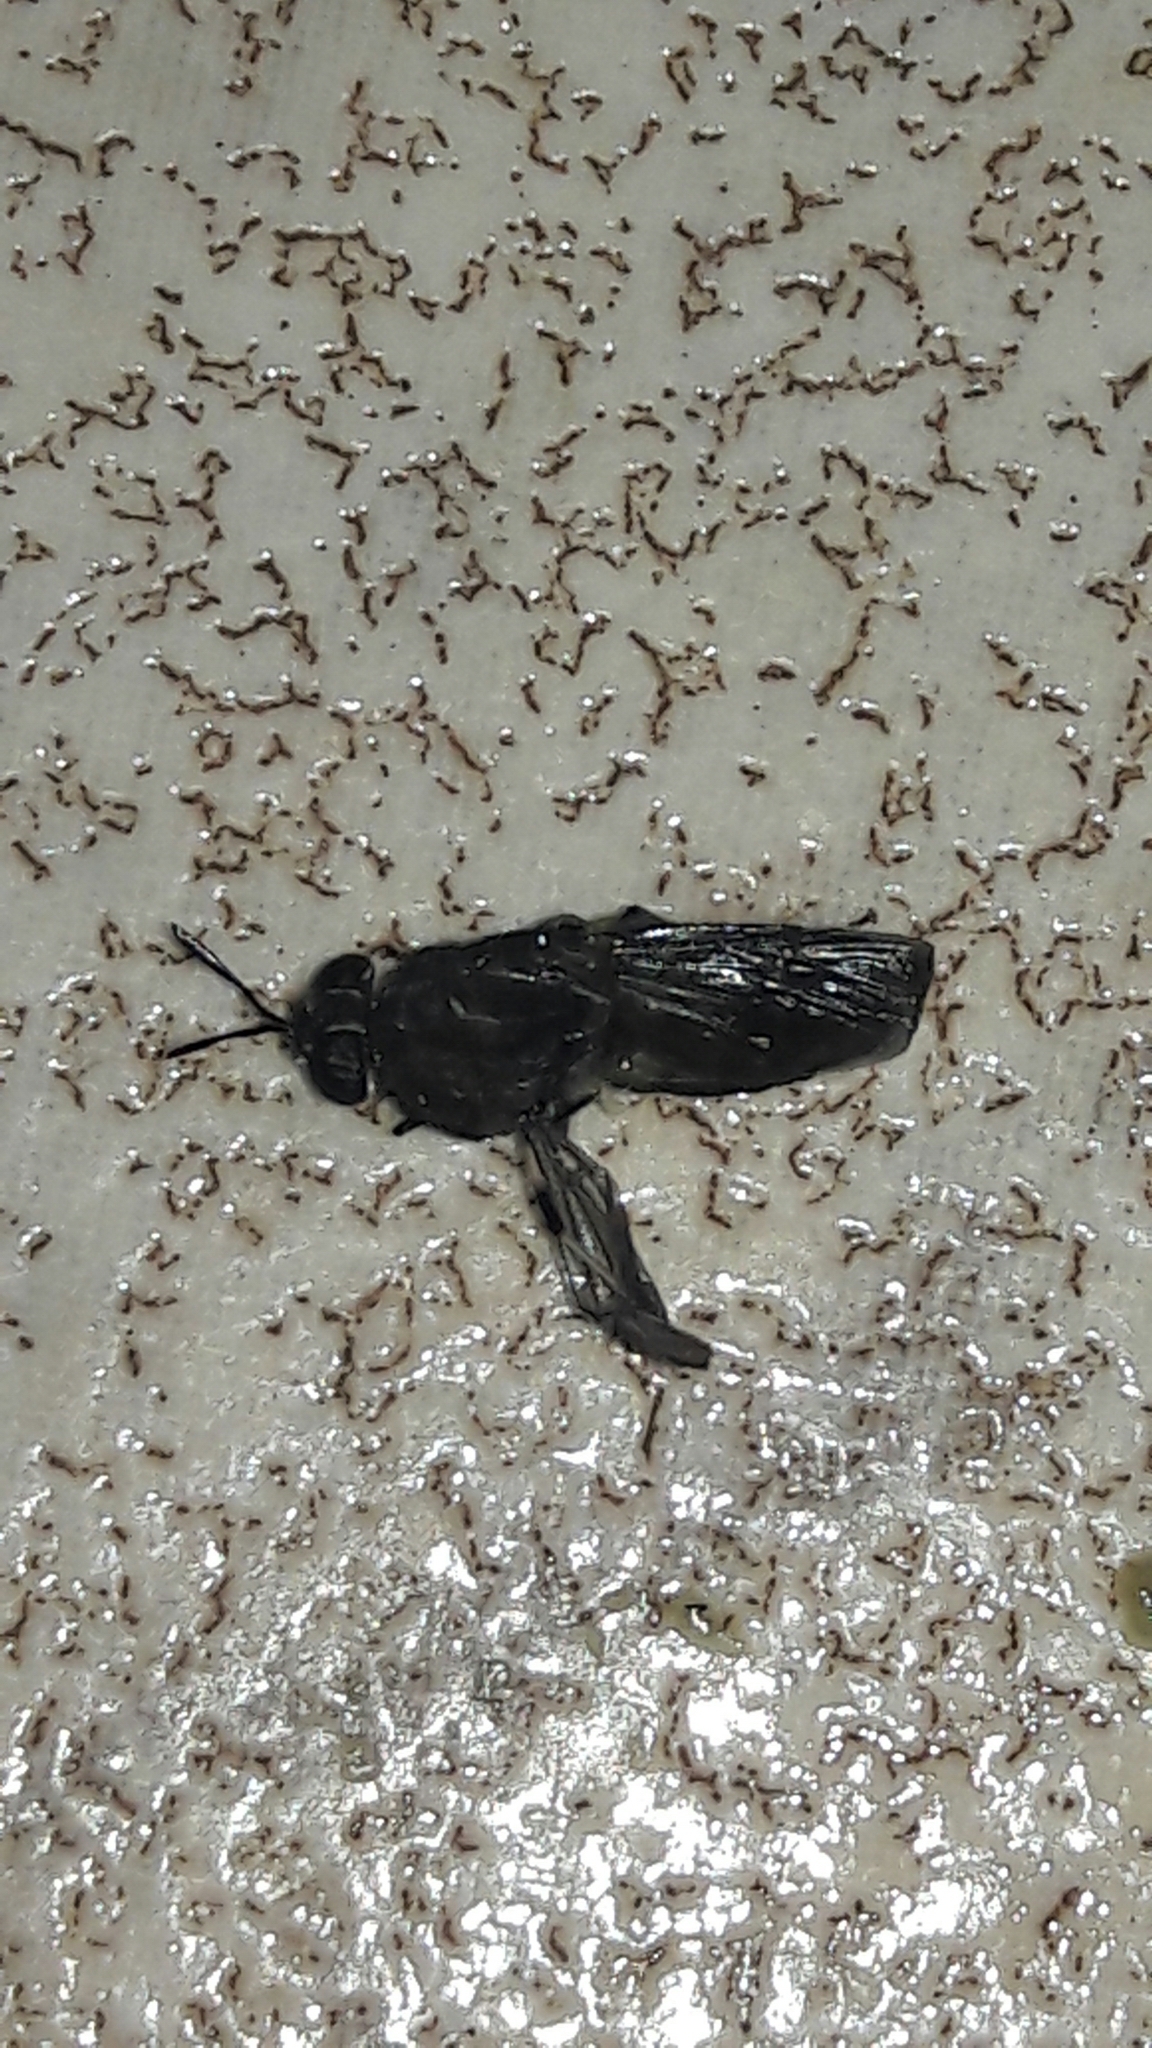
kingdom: Animalia
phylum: Arthropoda
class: Insecta
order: Diptera
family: Stratiomyidae
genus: Hermetia
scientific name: Hermetia illucens
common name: Black soldier fly
